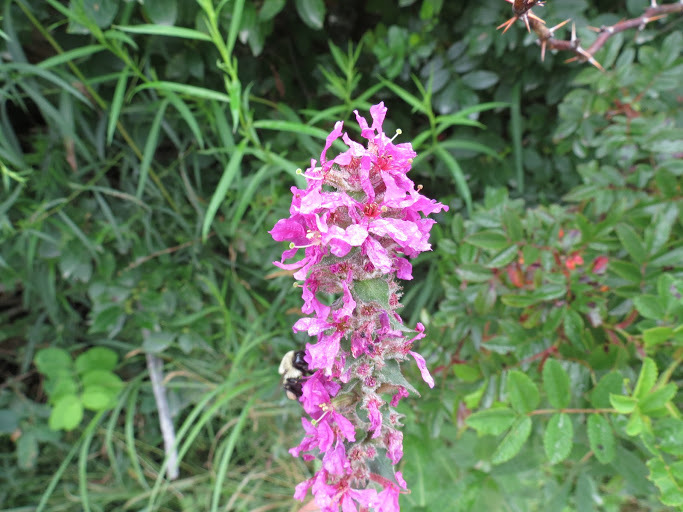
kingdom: Plantae
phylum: Tracheophyta
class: Magnoliopsida
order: Myrtales
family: Lythraceae
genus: Lythrum
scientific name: Lythrum salicaria
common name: Purple loosestrife
